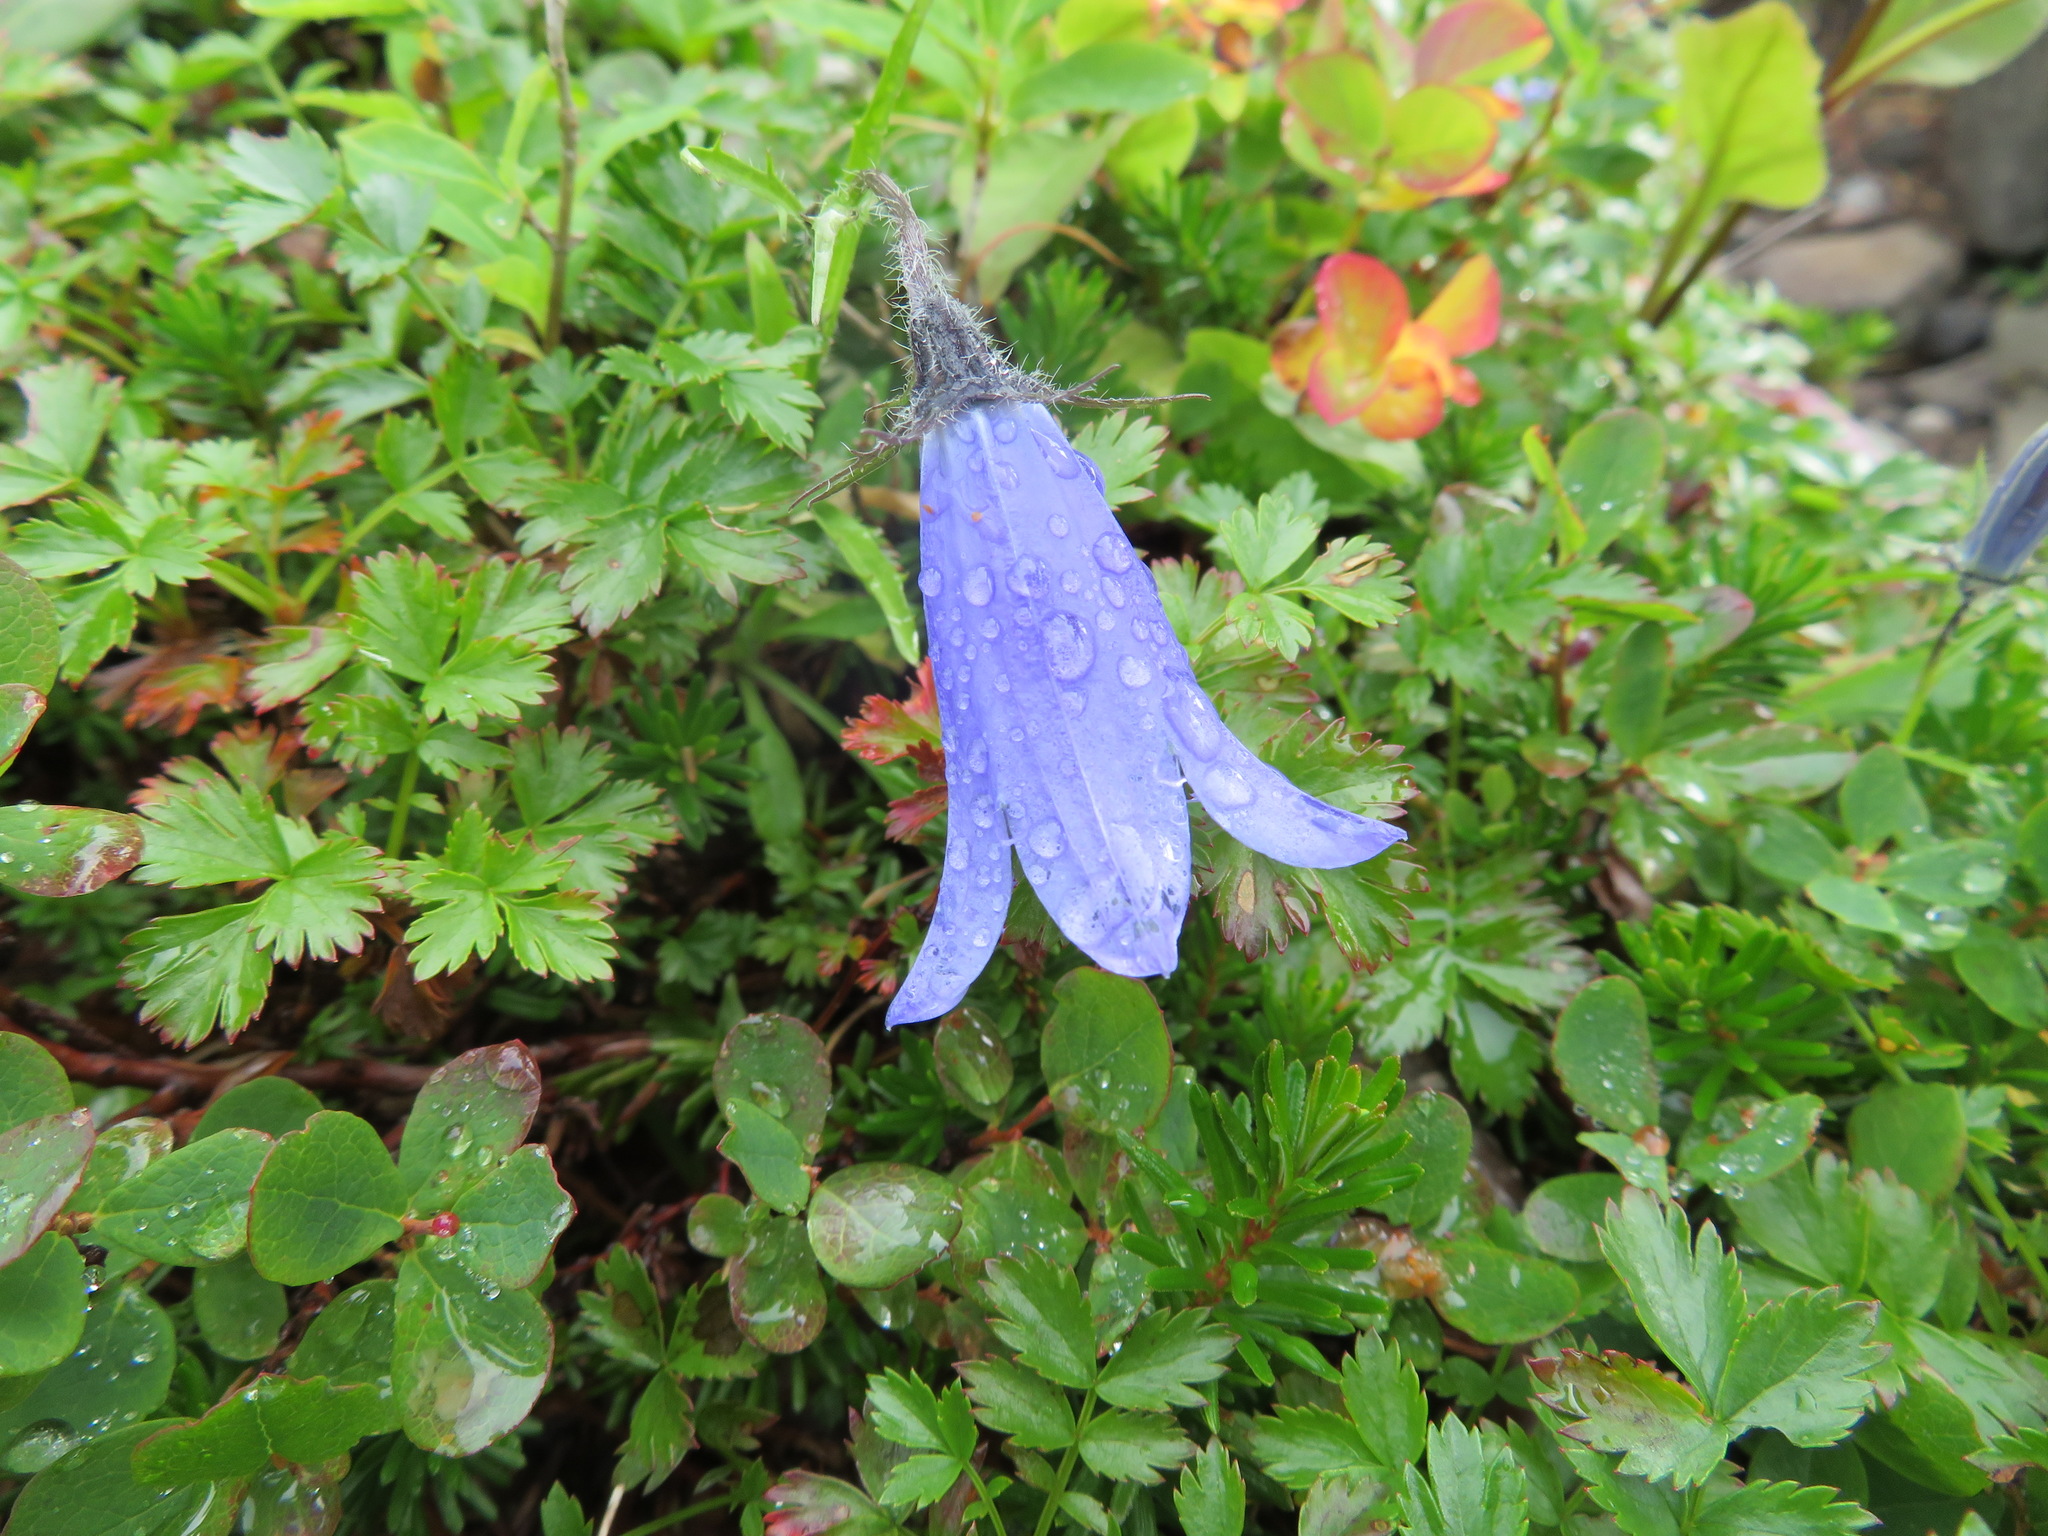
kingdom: Plantae
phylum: Tracheophyta
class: Magnoliopsida
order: Asterales
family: Campanulaceae
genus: Campanula
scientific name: Campanula lasiocarpa
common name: Mountain harebell
